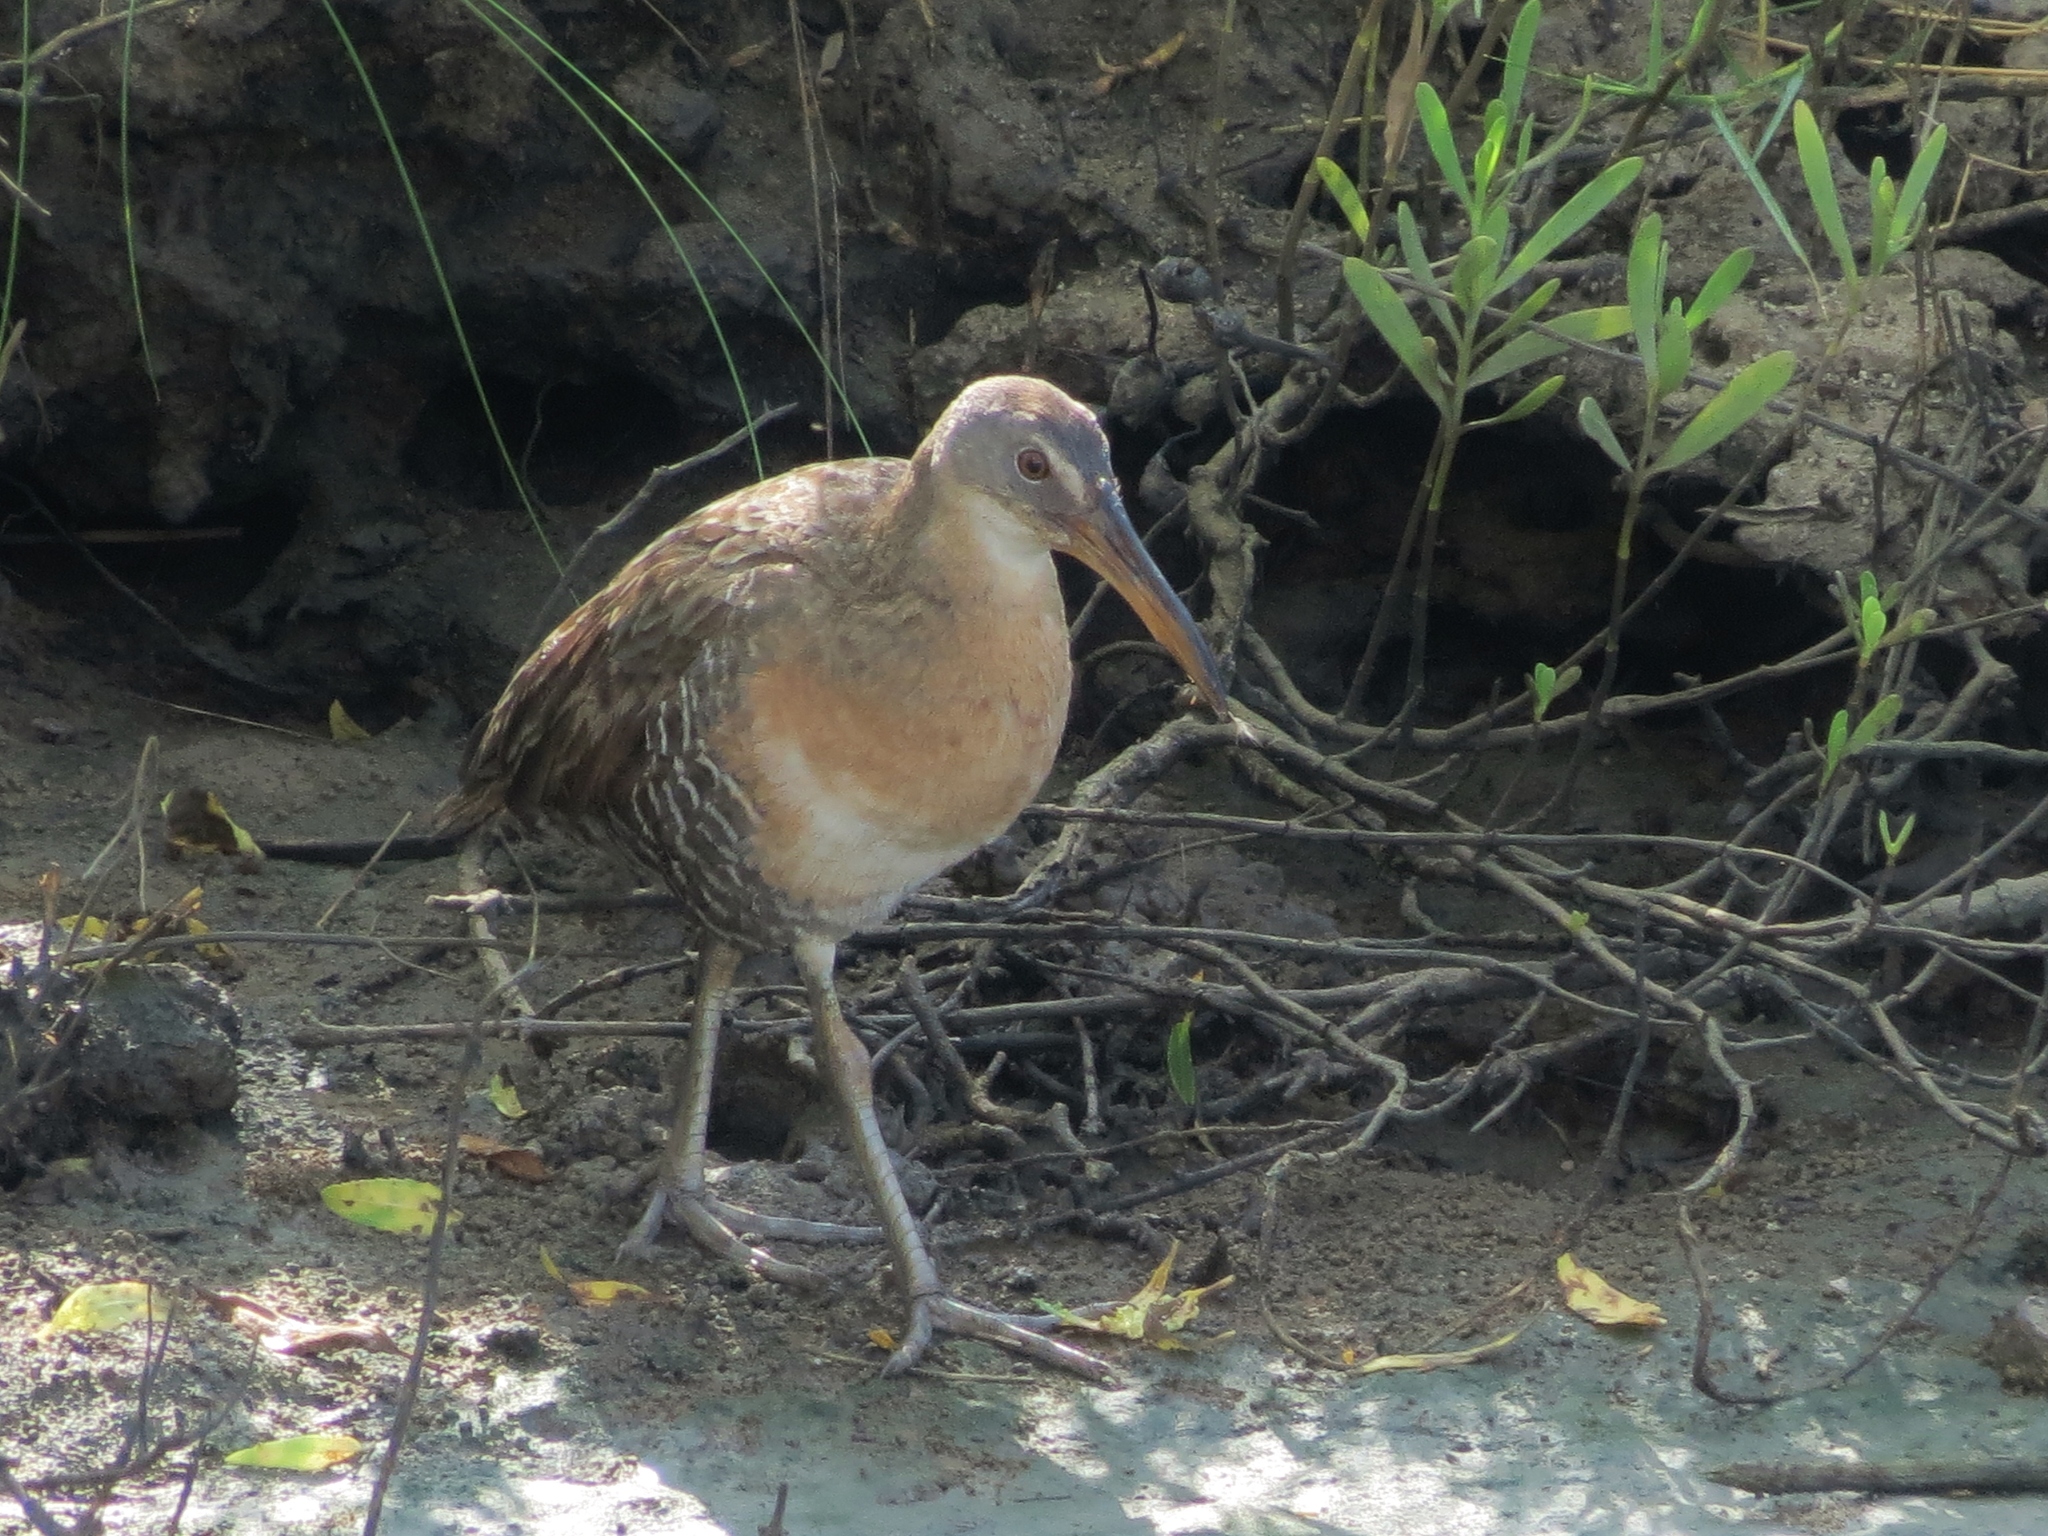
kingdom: Animalia
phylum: Chordata
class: Aves
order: Gruiformes
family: Rallidae
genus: Rallus
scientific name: Rallus crepitans
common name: Clapper rail
